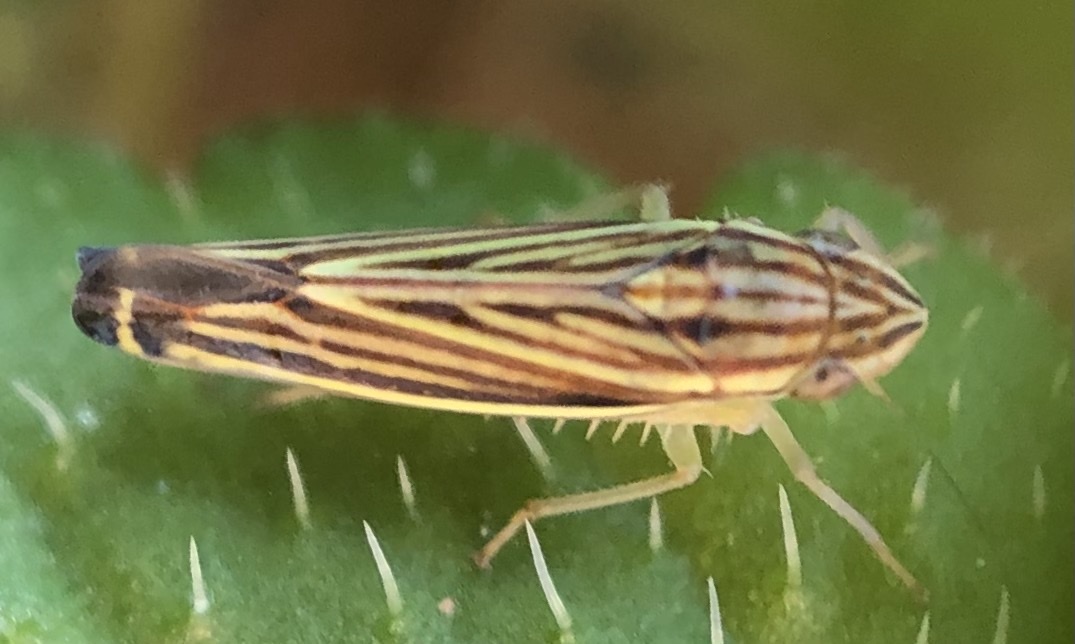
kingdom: Animalia
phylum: Arthropoda
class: Insecta
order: Hemiptera
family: Cicadellidae
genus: Sibovia
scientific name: Sibovia occatoria
